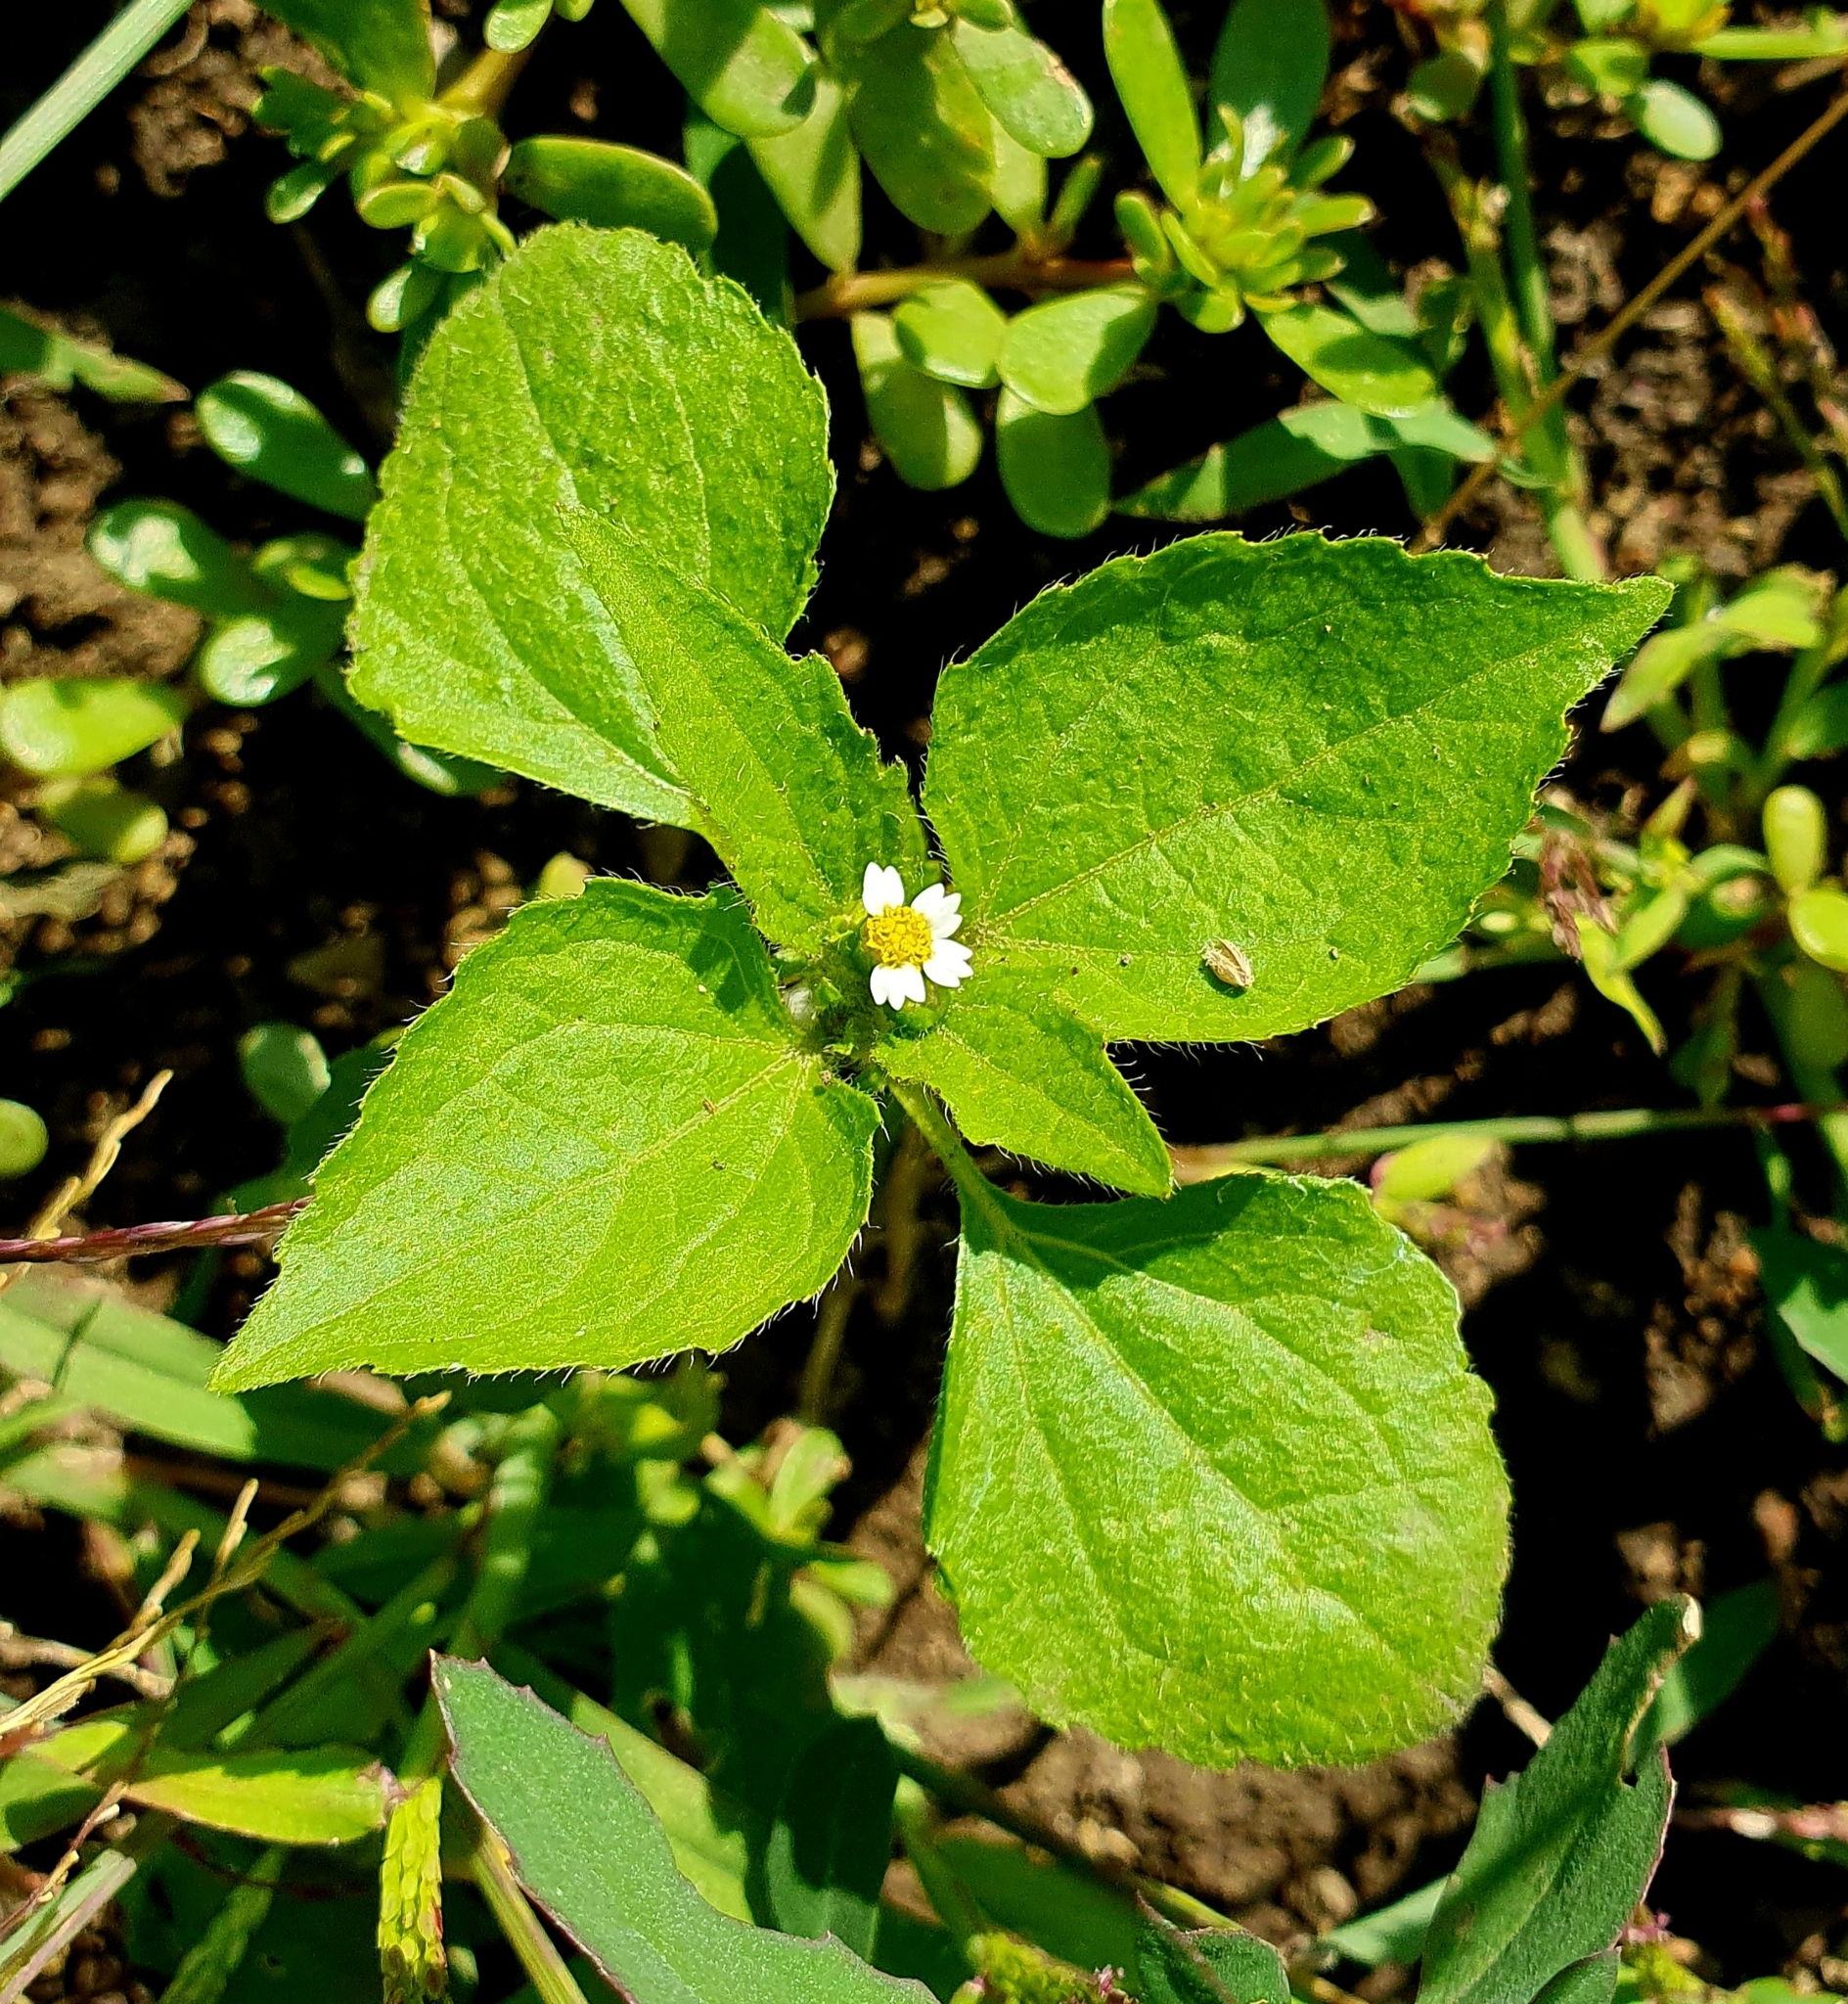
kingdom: Plantae
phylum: Tracheophyta
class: Magnoliopsida
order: Asterales
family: Asteraceae
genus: Galinsoga
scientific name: Galinsoga quadriradiata
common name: Shaggy soldier
